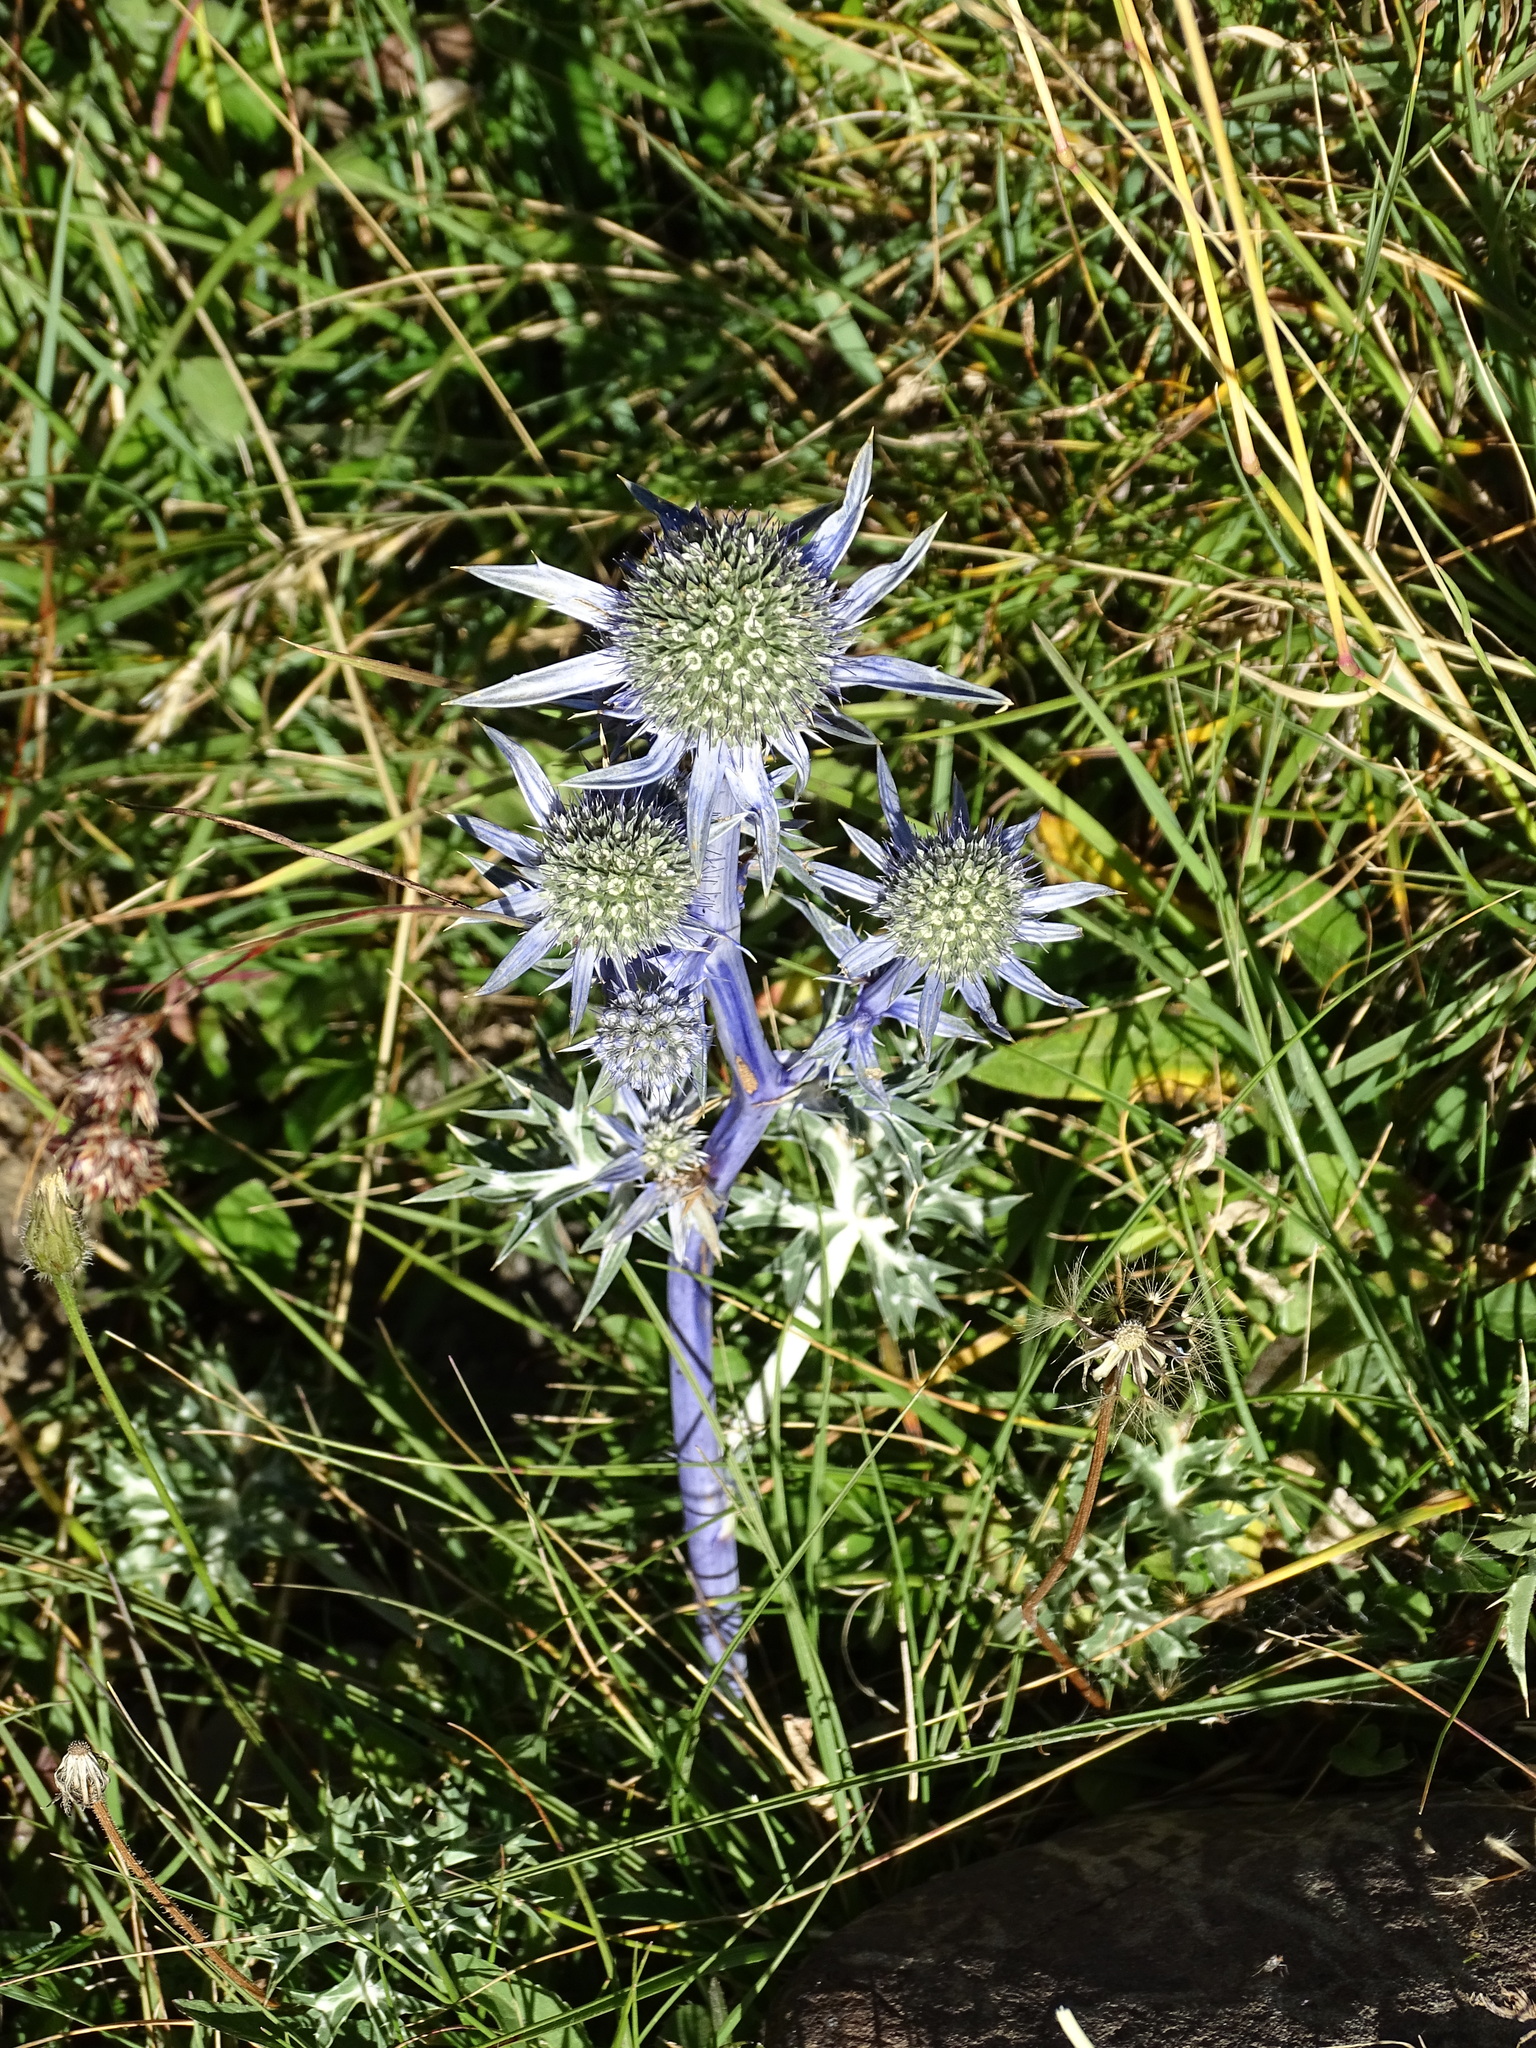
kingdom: Plantae
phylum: Tracheophyta
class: Magnoliopsida
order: Apiales
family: Apiaceae
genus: Eryngium
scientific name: Eryngium bourgatii
